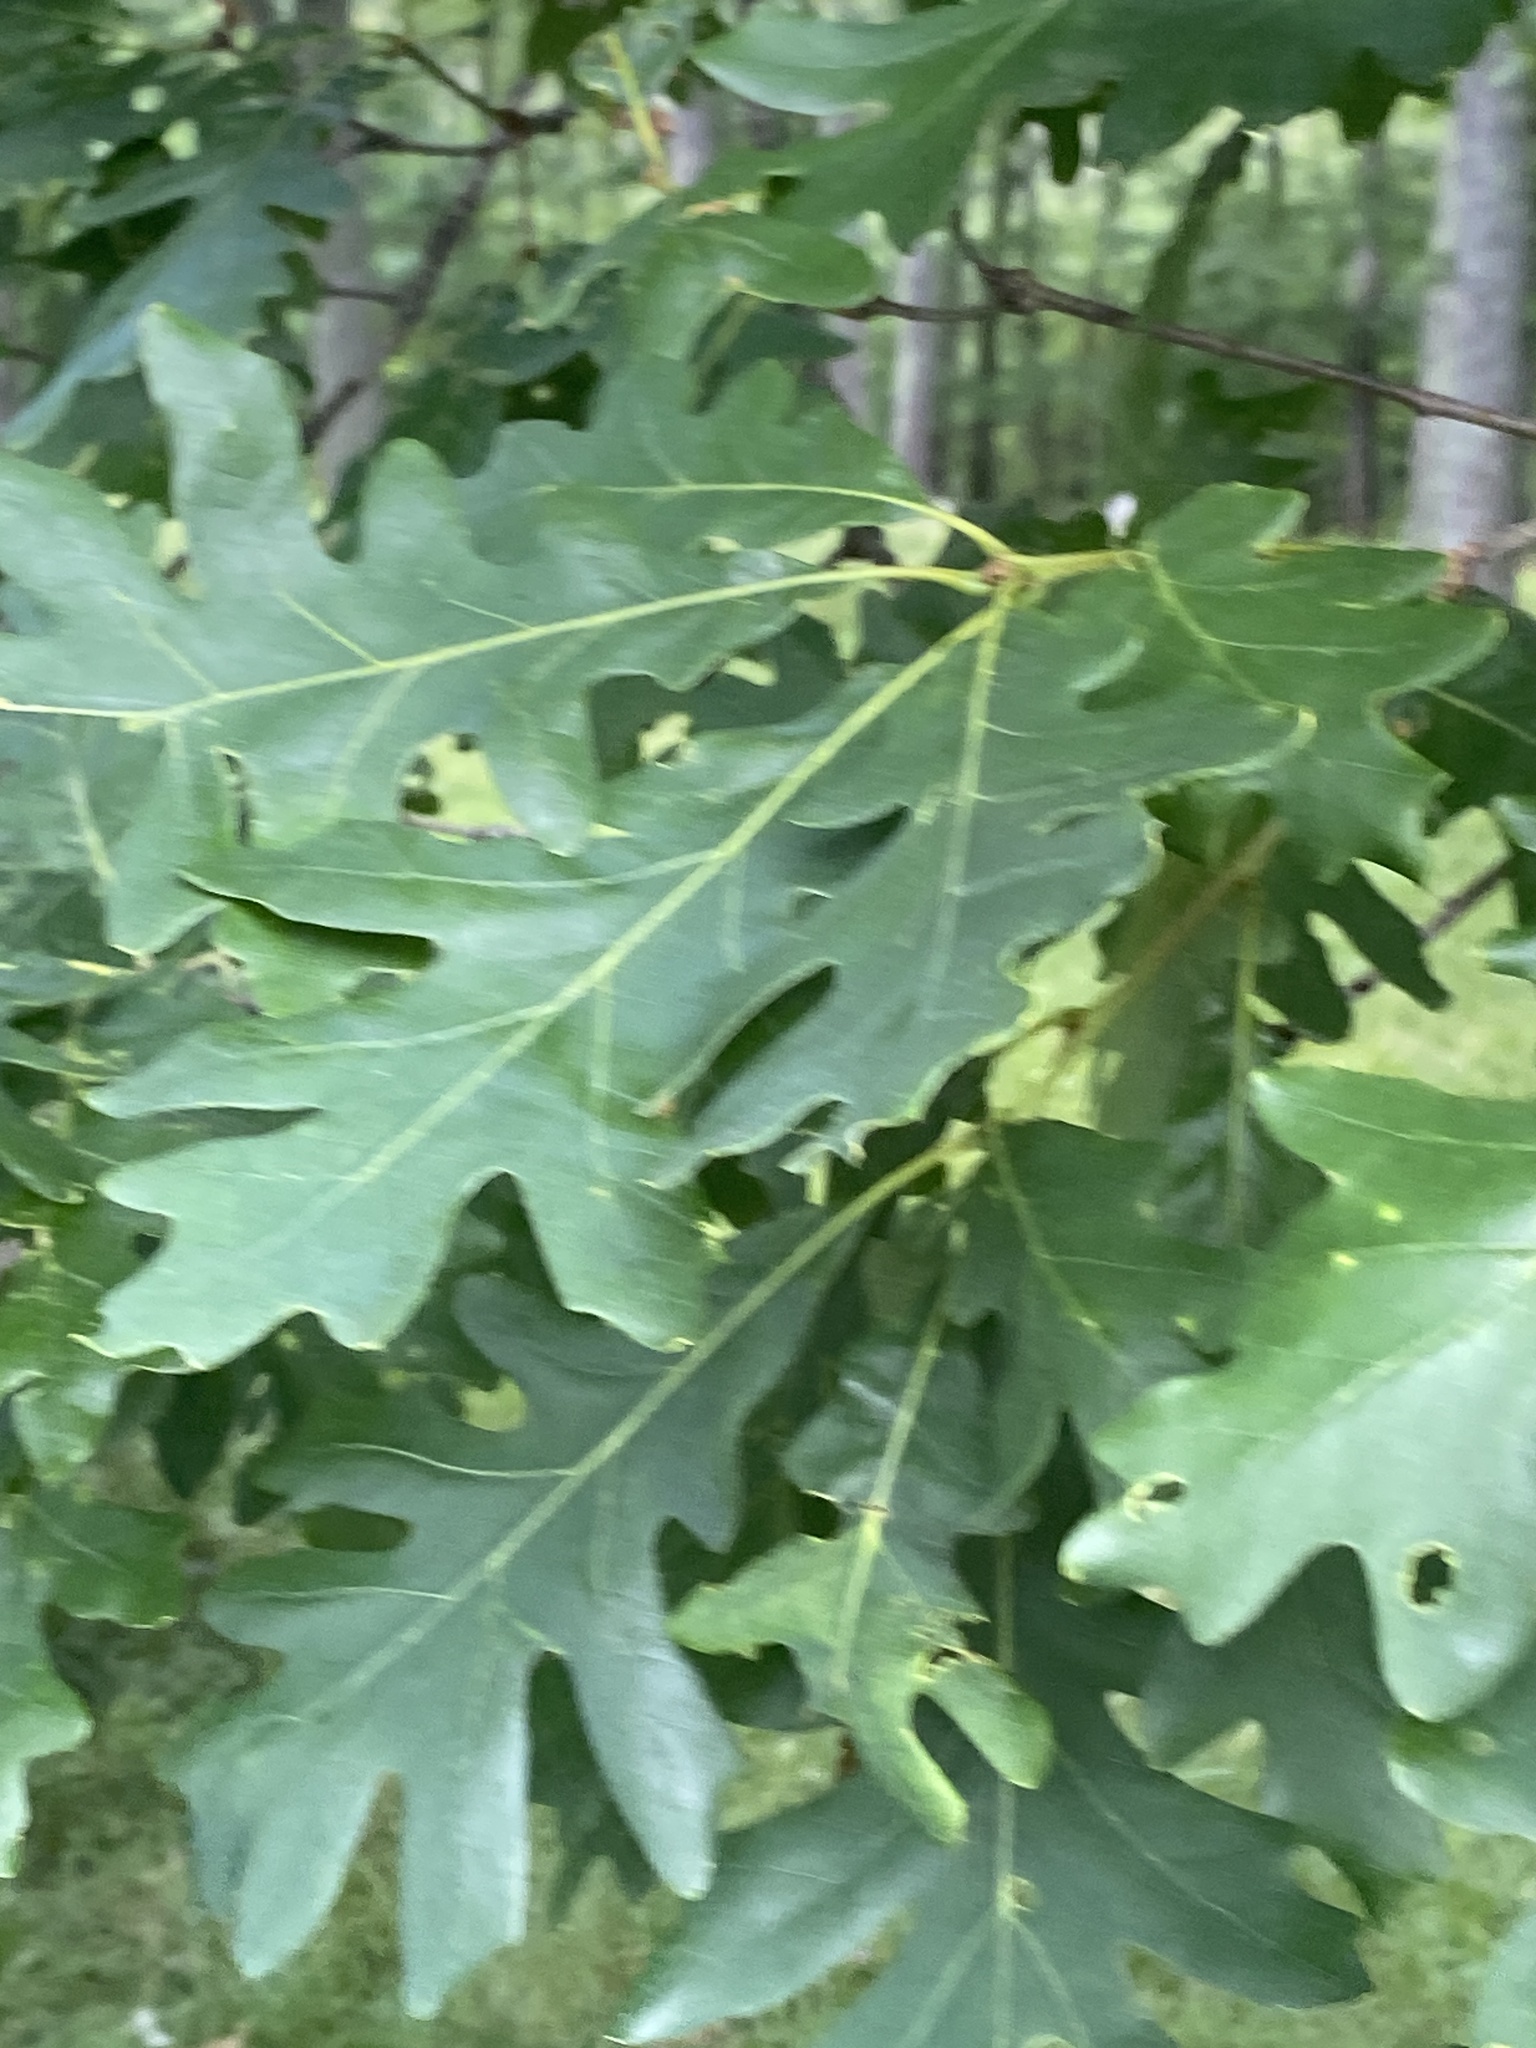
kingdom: Plantae
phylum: Tracheophyta
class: Magnoliopsida
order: Fagales
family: Fagaceae
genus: Quercus
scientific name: Quercus alba
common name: White oak
